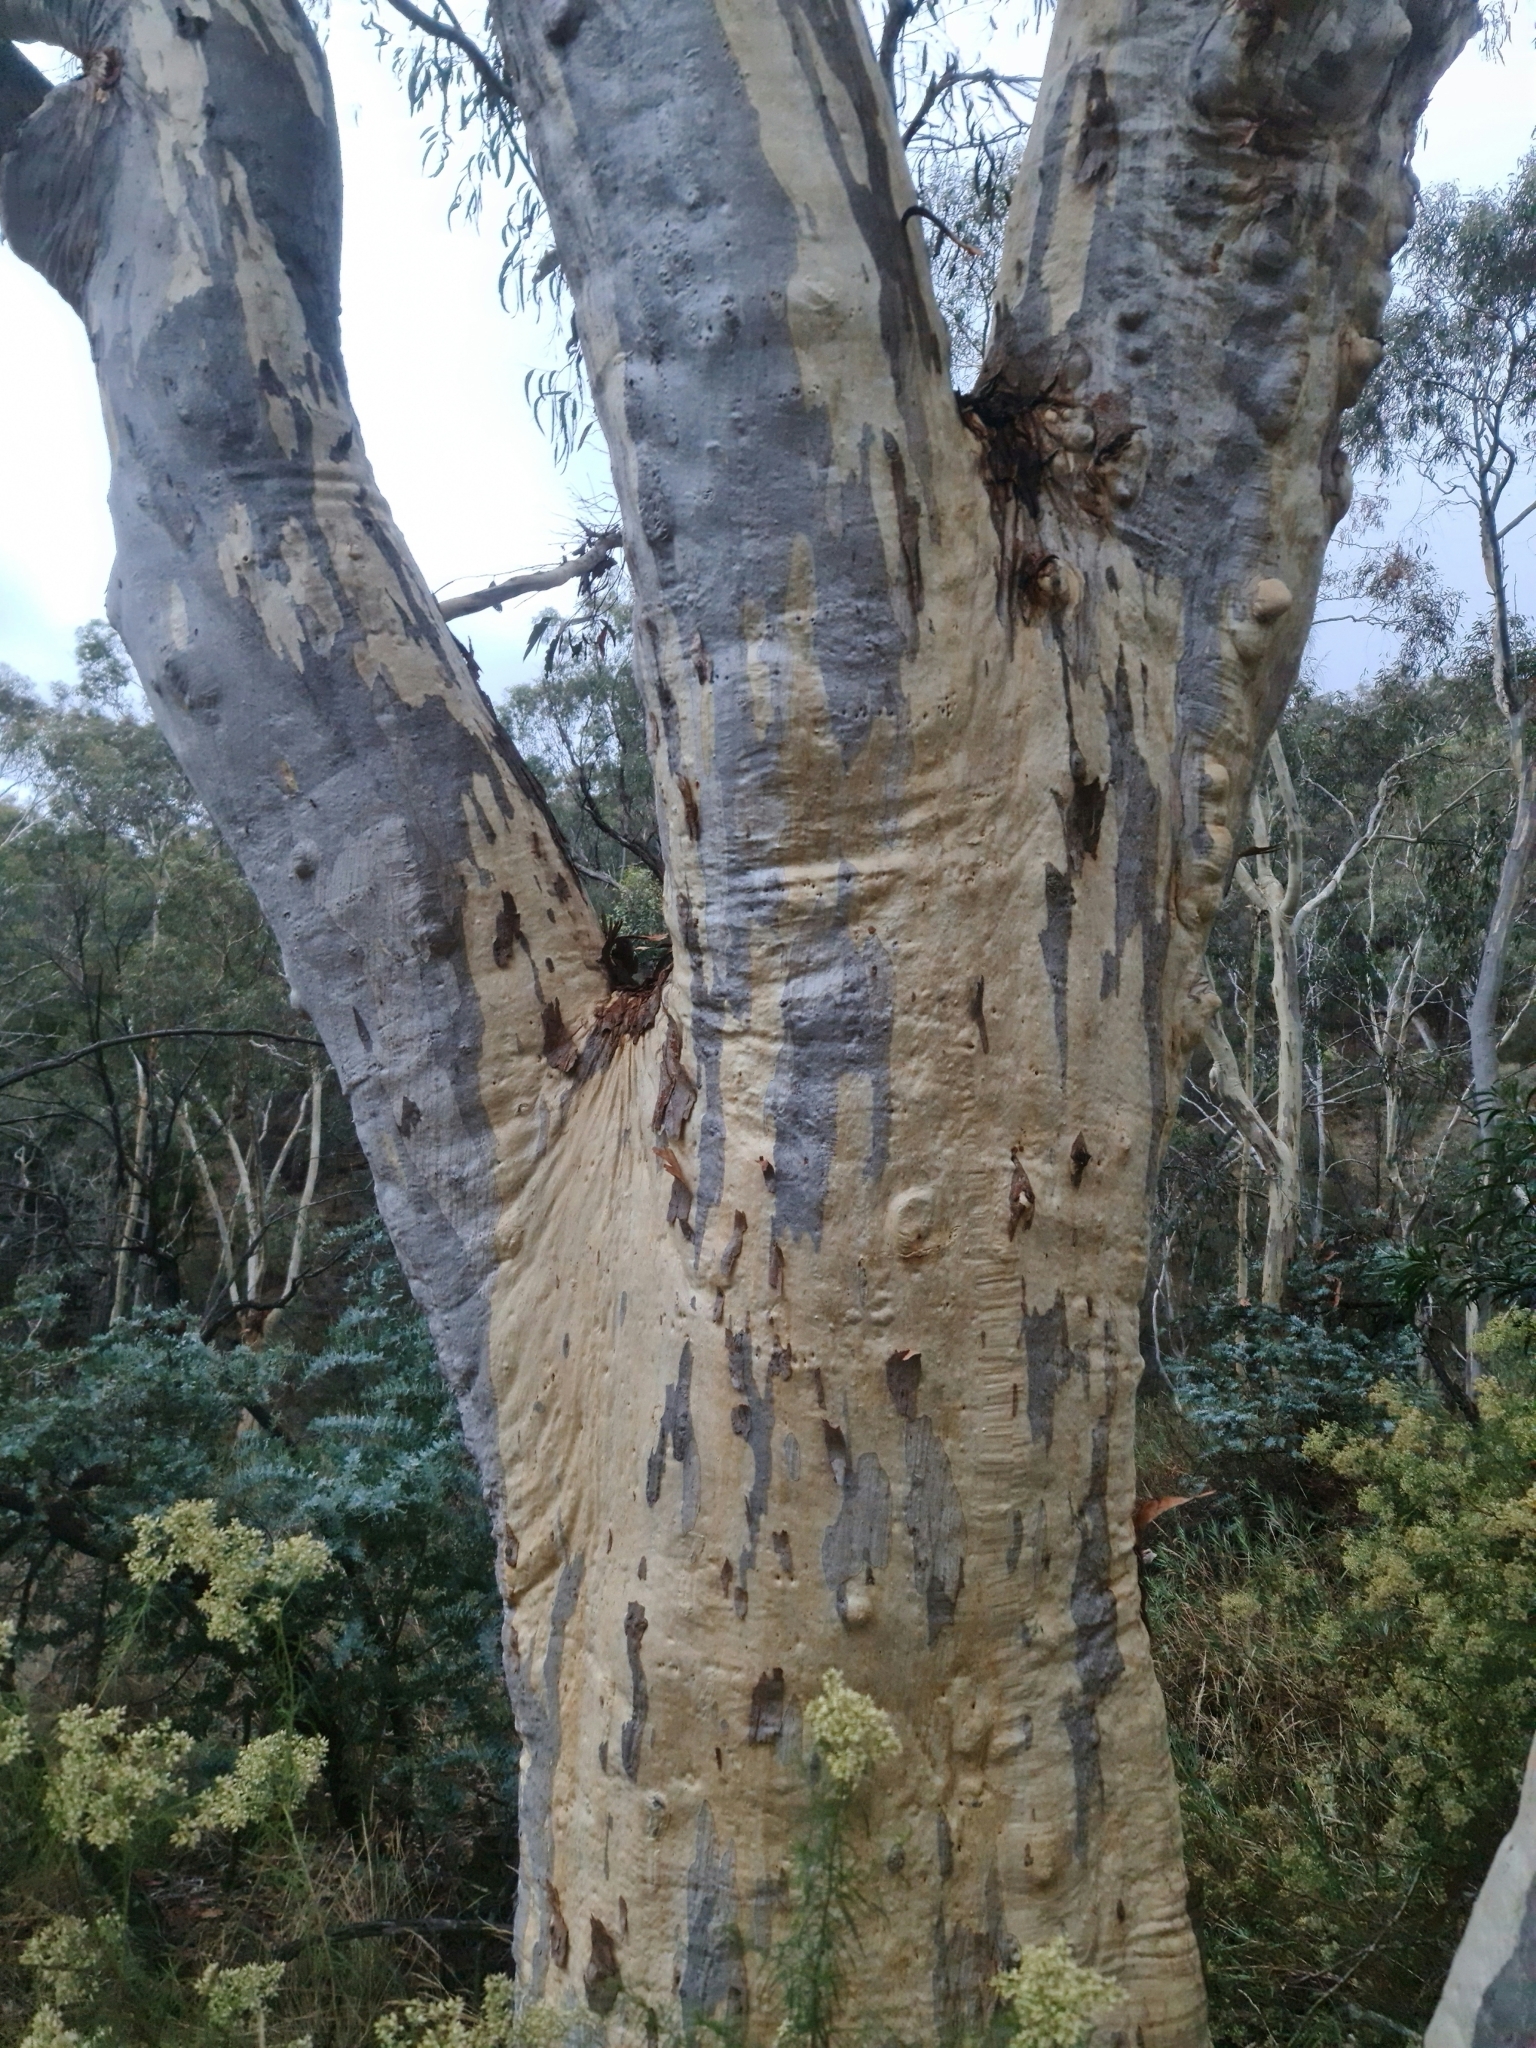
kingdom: Plantae
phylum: Tracheophyta
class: Magnoliopsida
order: Myrtales
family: Myrtaceae
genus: Eucalyptus
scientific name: Eucalyptus racemosa
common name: Scribbly gum
